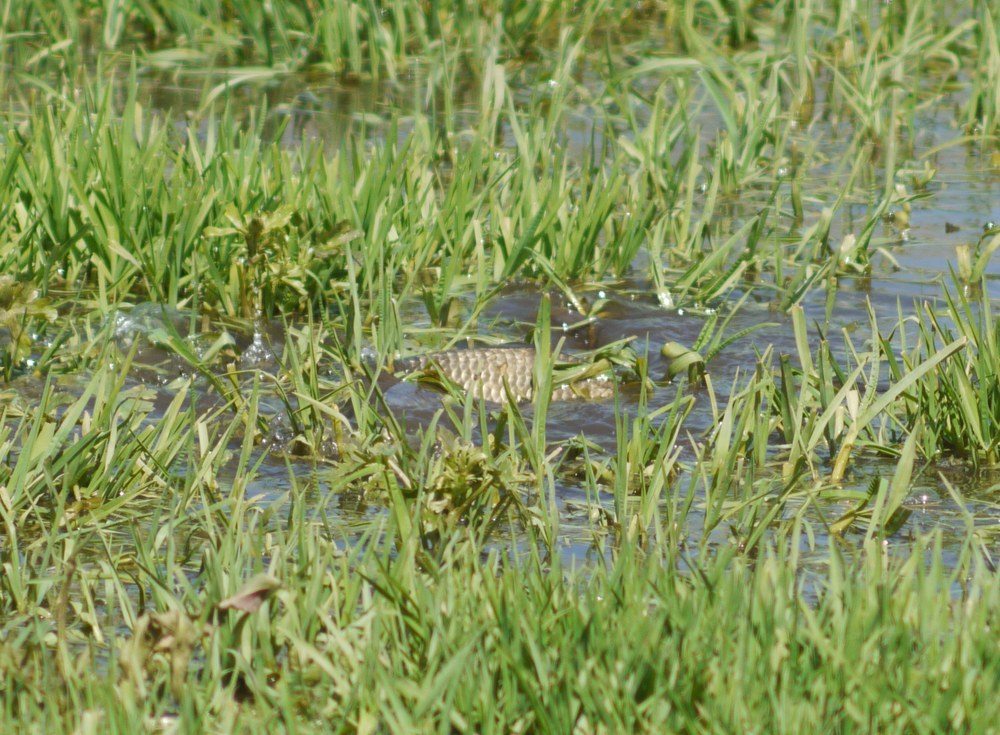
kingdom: Animalia
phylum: Chordata
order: Cypriniformes
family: Cyprinidae
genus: Carassius
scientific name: Carassius gibelio
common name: Prussian carp
